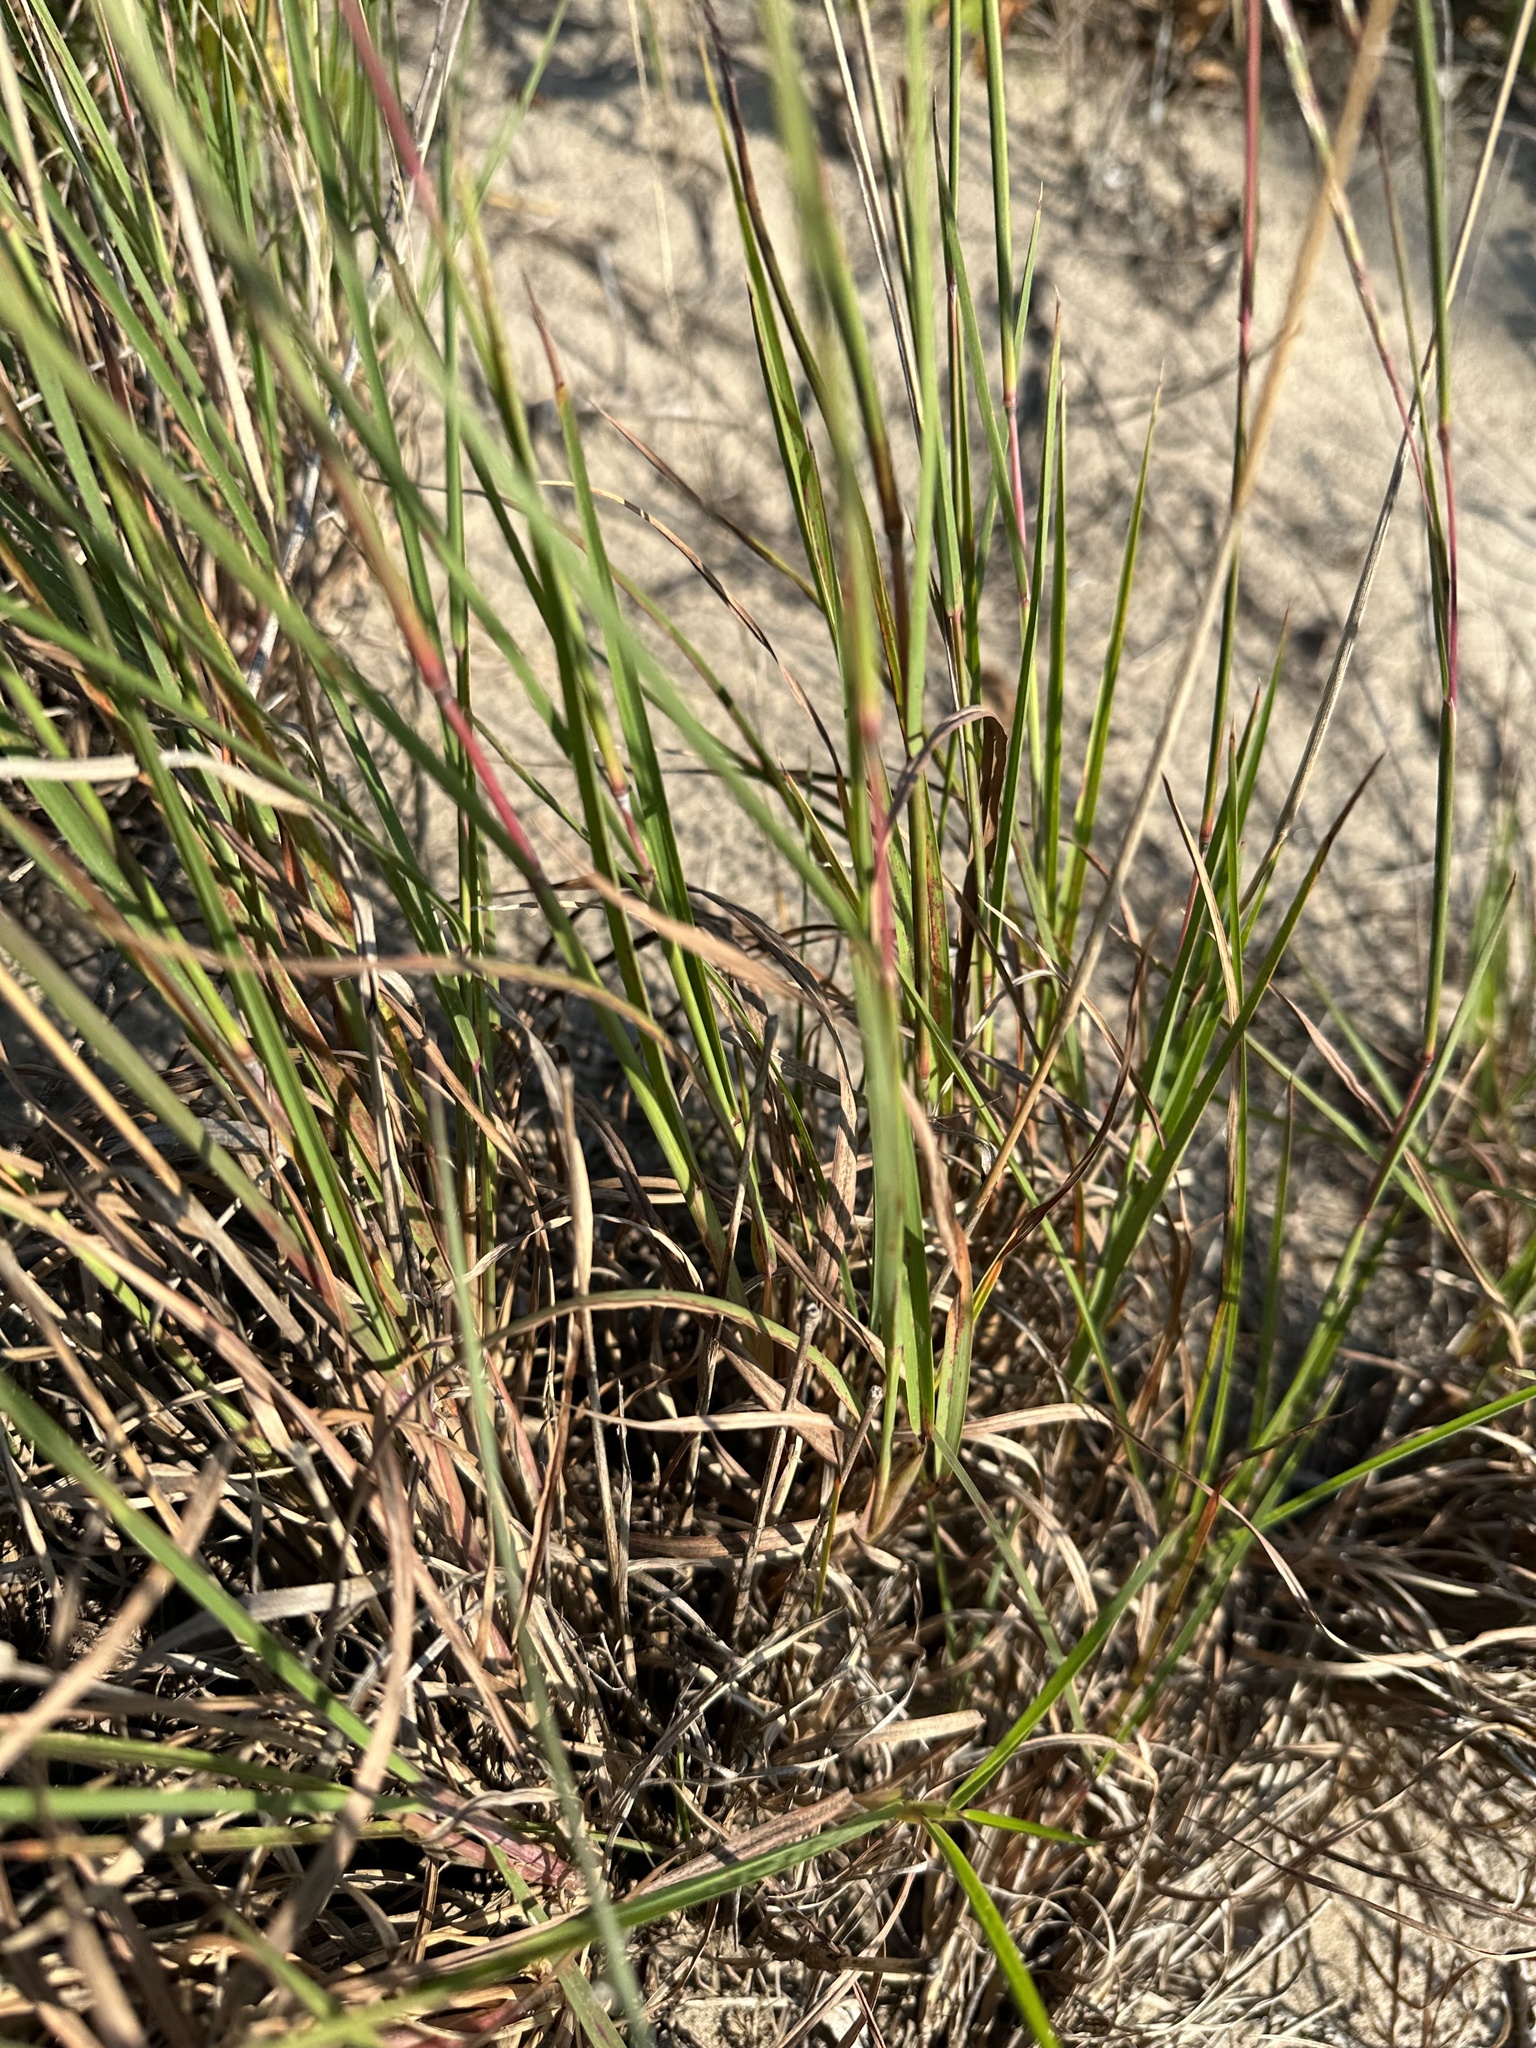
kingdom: Plantae
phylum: Tracheophyta
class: Liliopsida
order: Poales
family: Poaceae
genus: Elymus
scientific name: Elymus canadensis
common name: Canada wild rye
